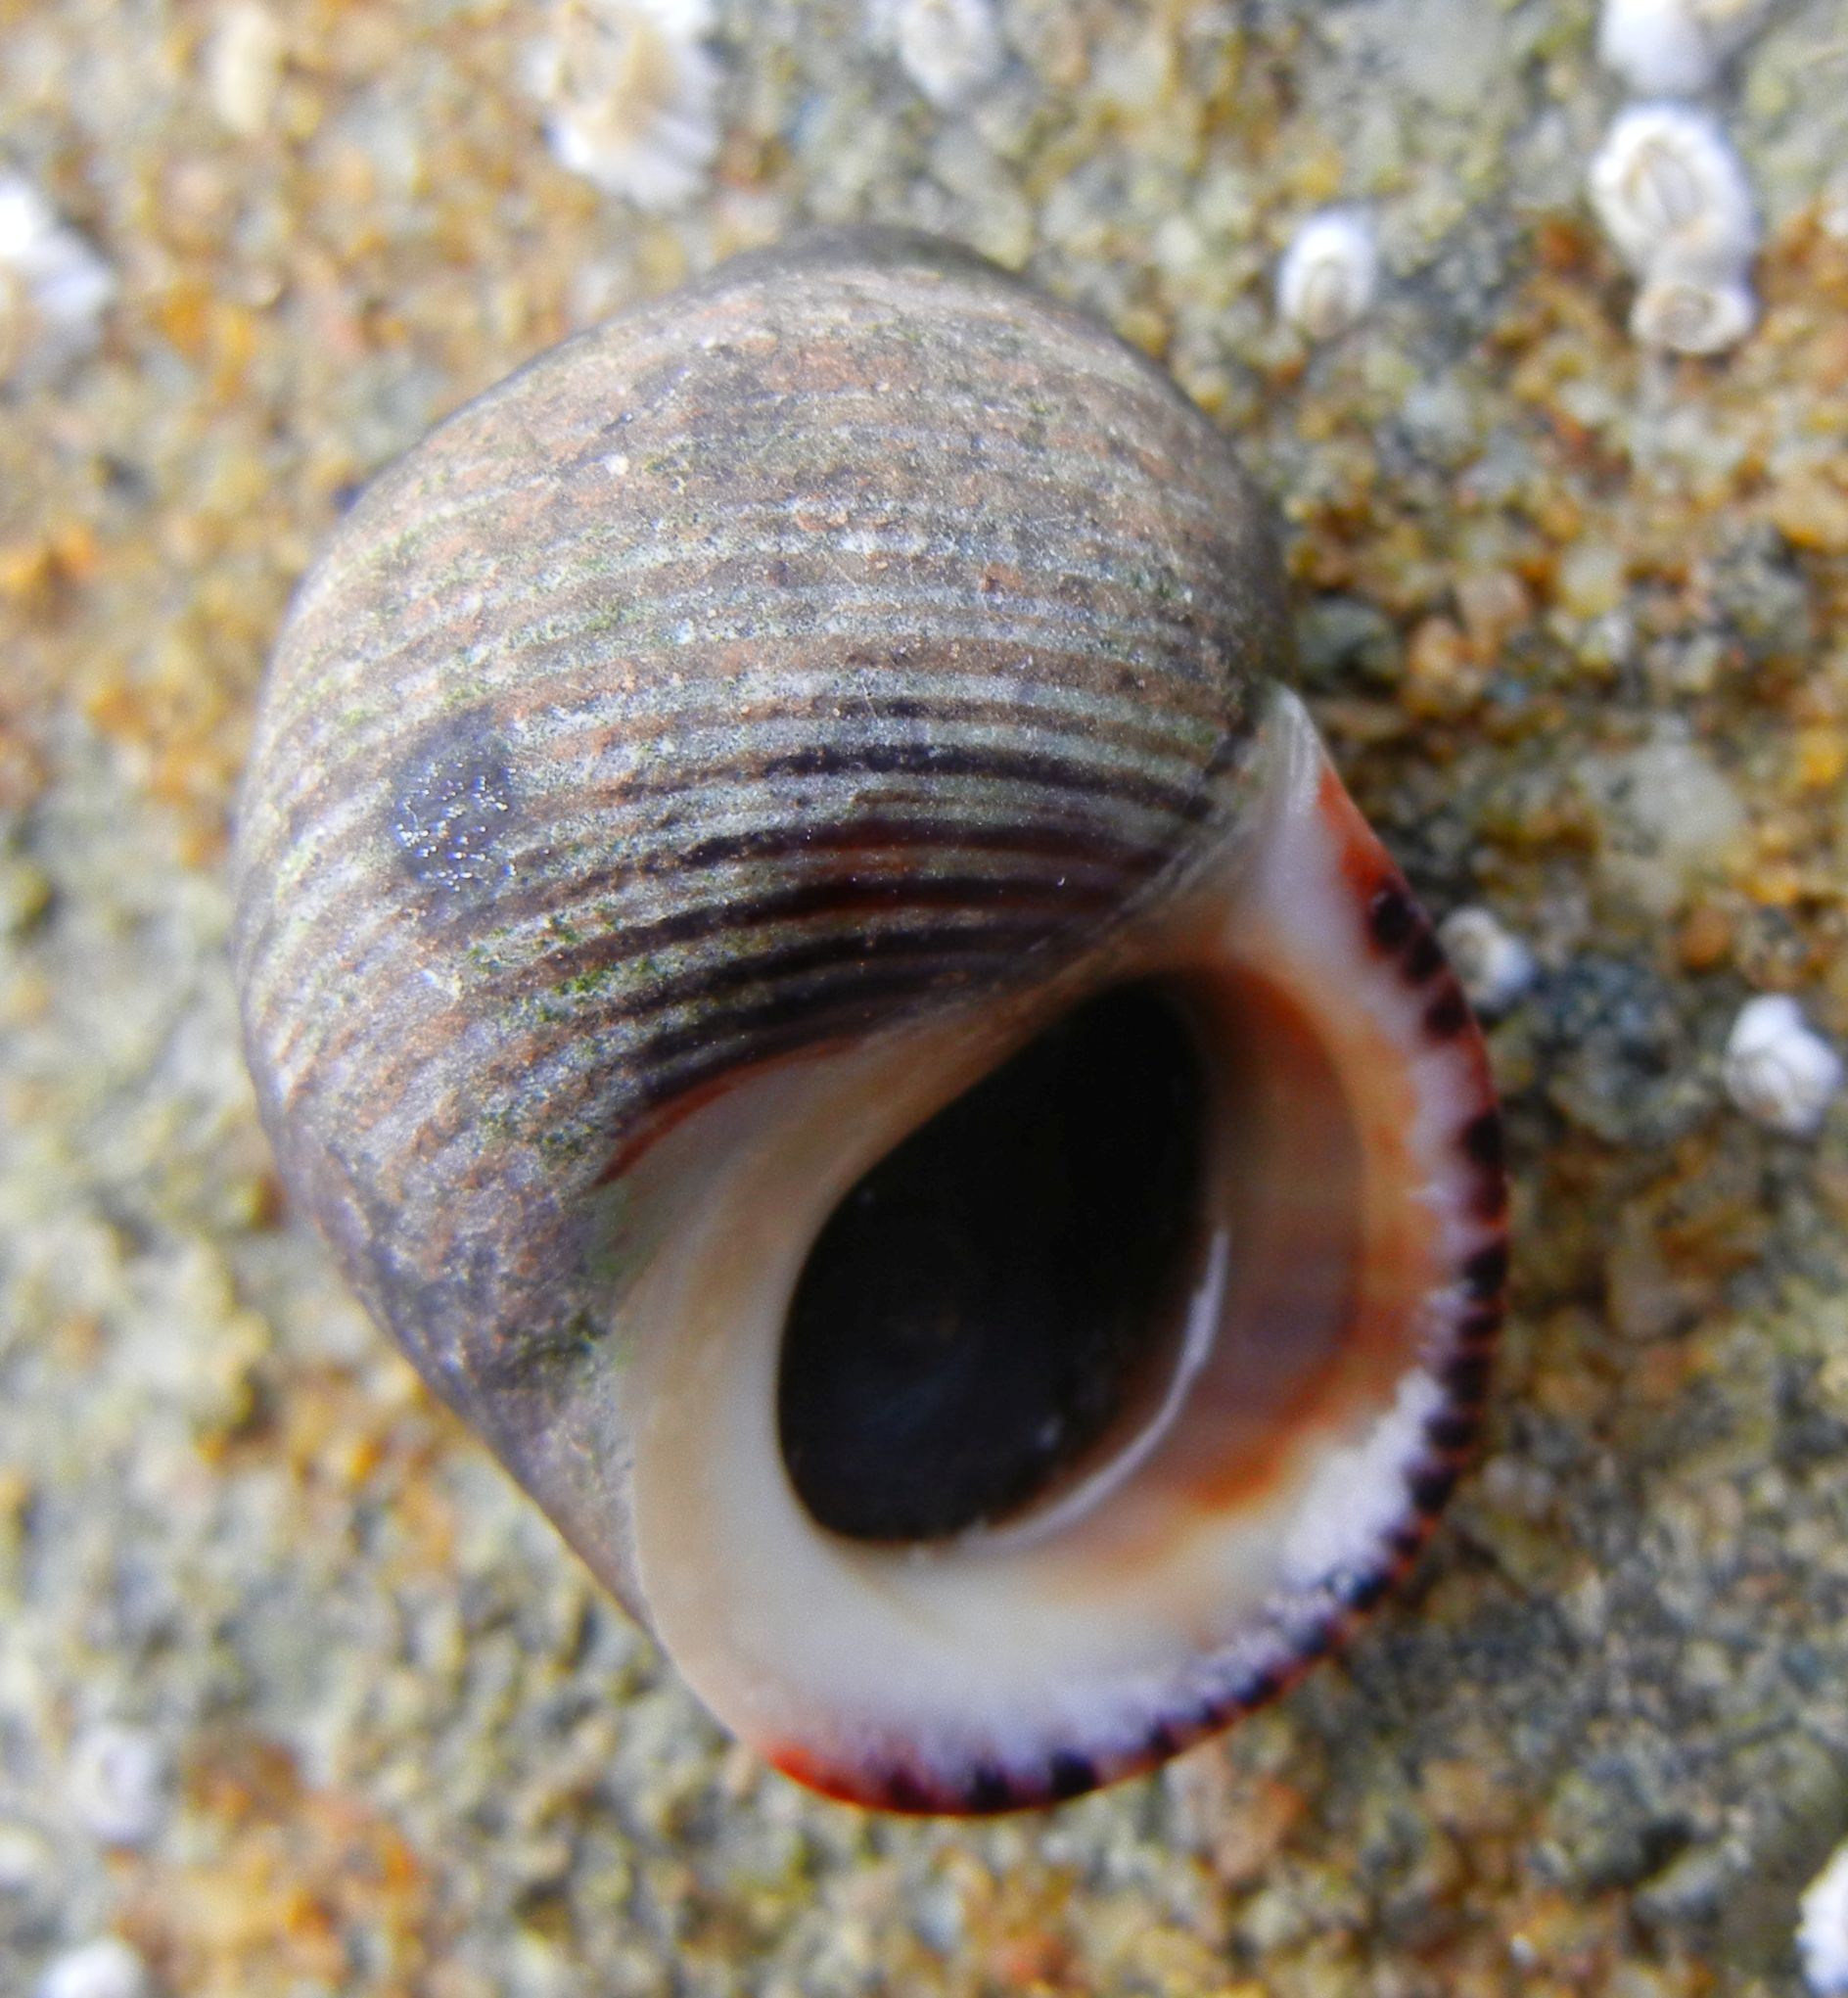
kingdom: Animalia
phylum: Mollusca
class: Gastropoda
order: Littorinimorpha
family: Littorinidae
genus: Littorina
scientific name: Littorina littorea
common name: Common periwinkle
